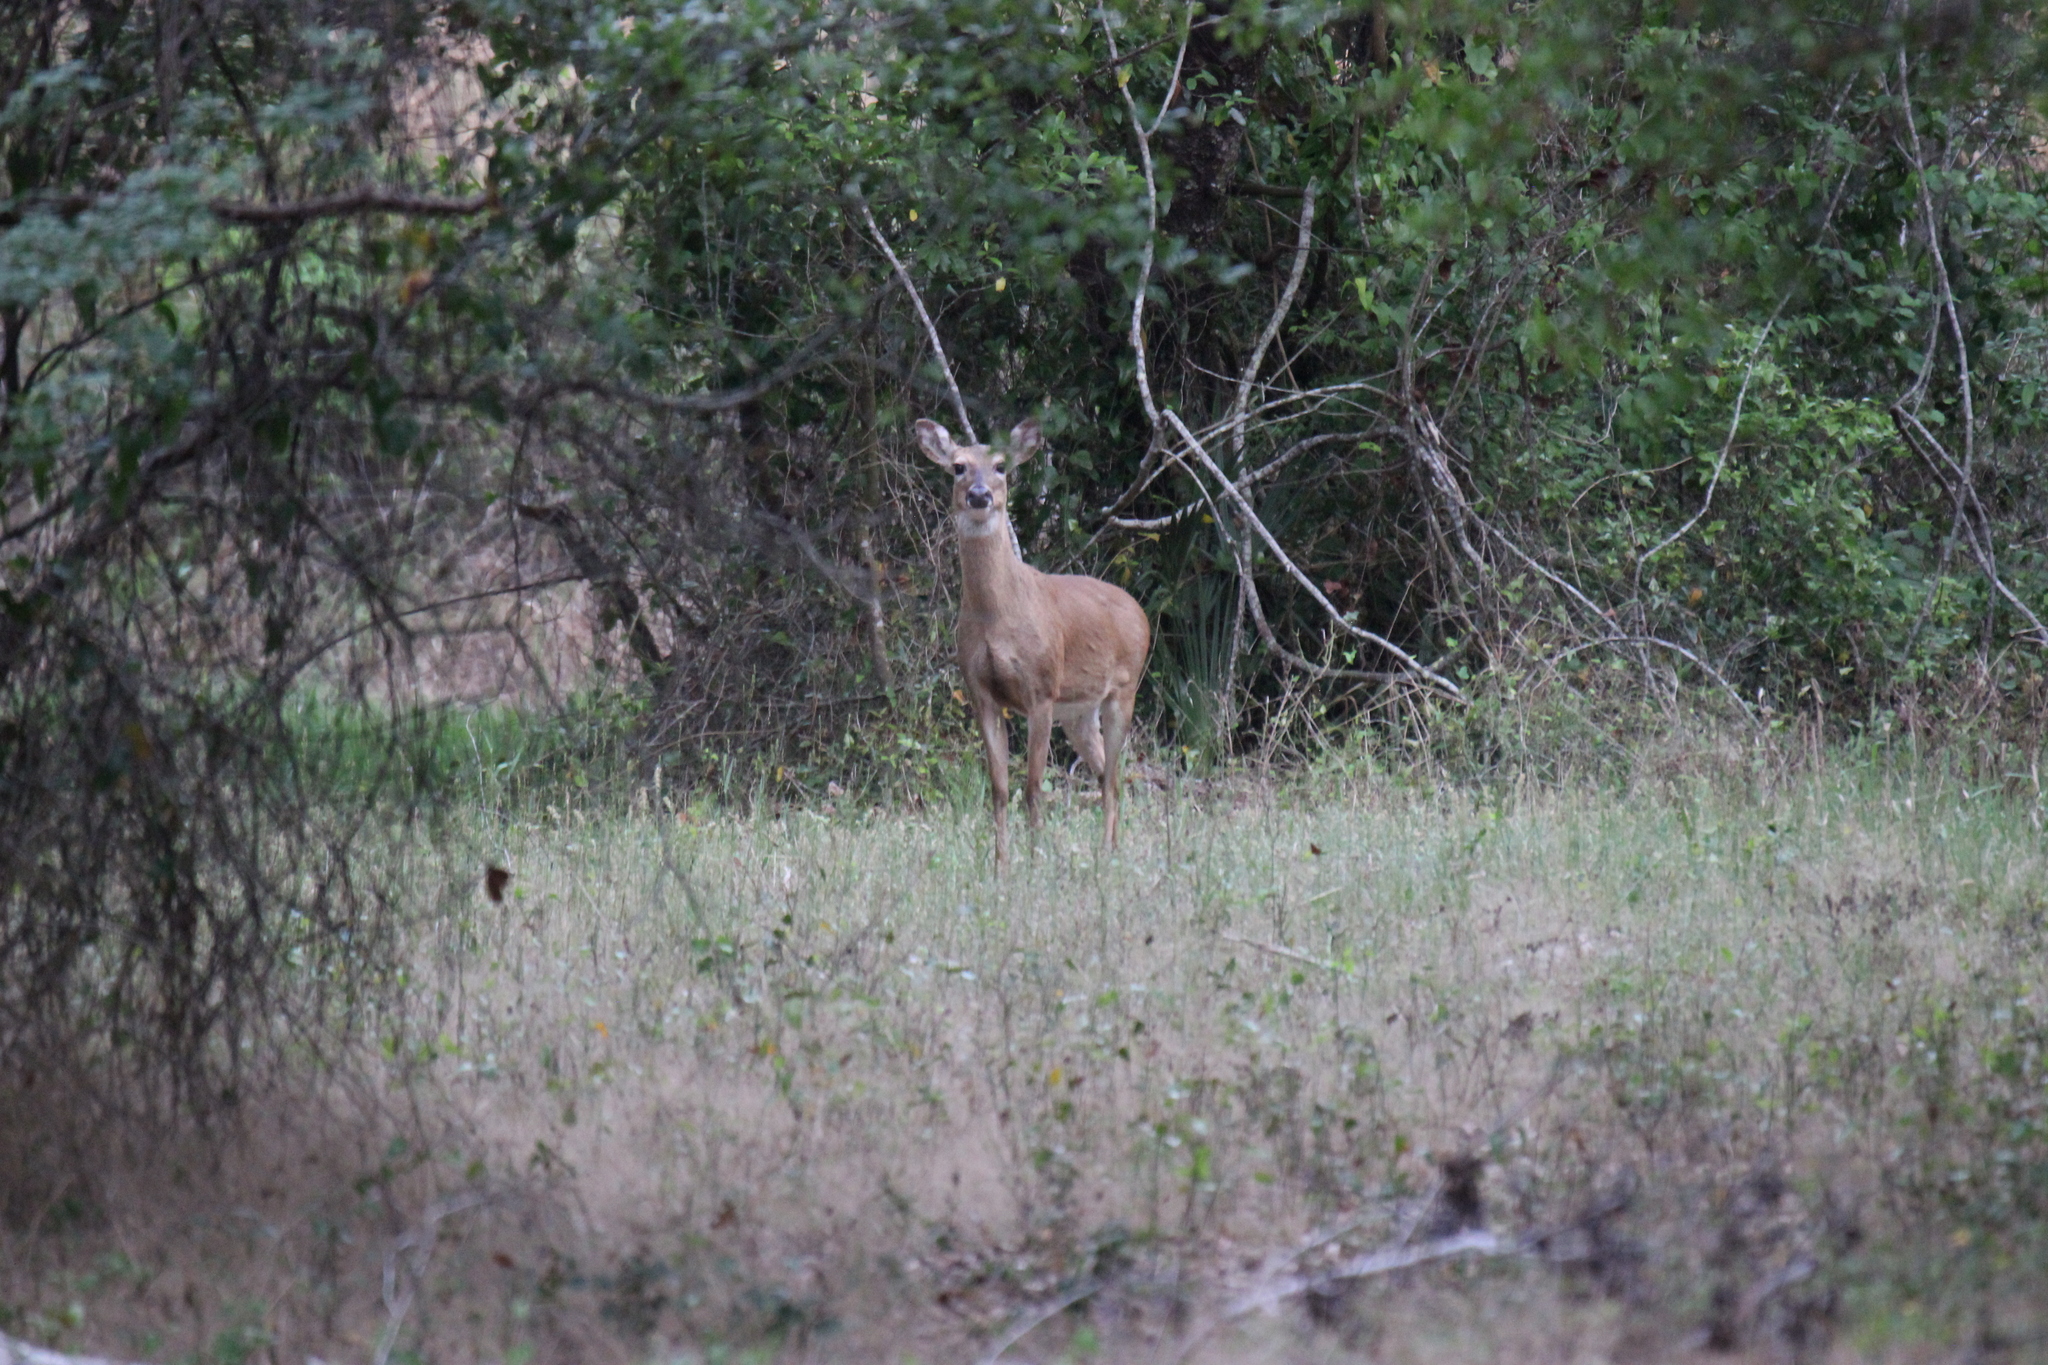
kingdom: Animalia
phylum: Chordata
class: Mammalia
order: Artiodactyla
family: Cervidae
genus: Odocoileus
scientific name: Odocoileus virginianus
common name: White-tailed deer
